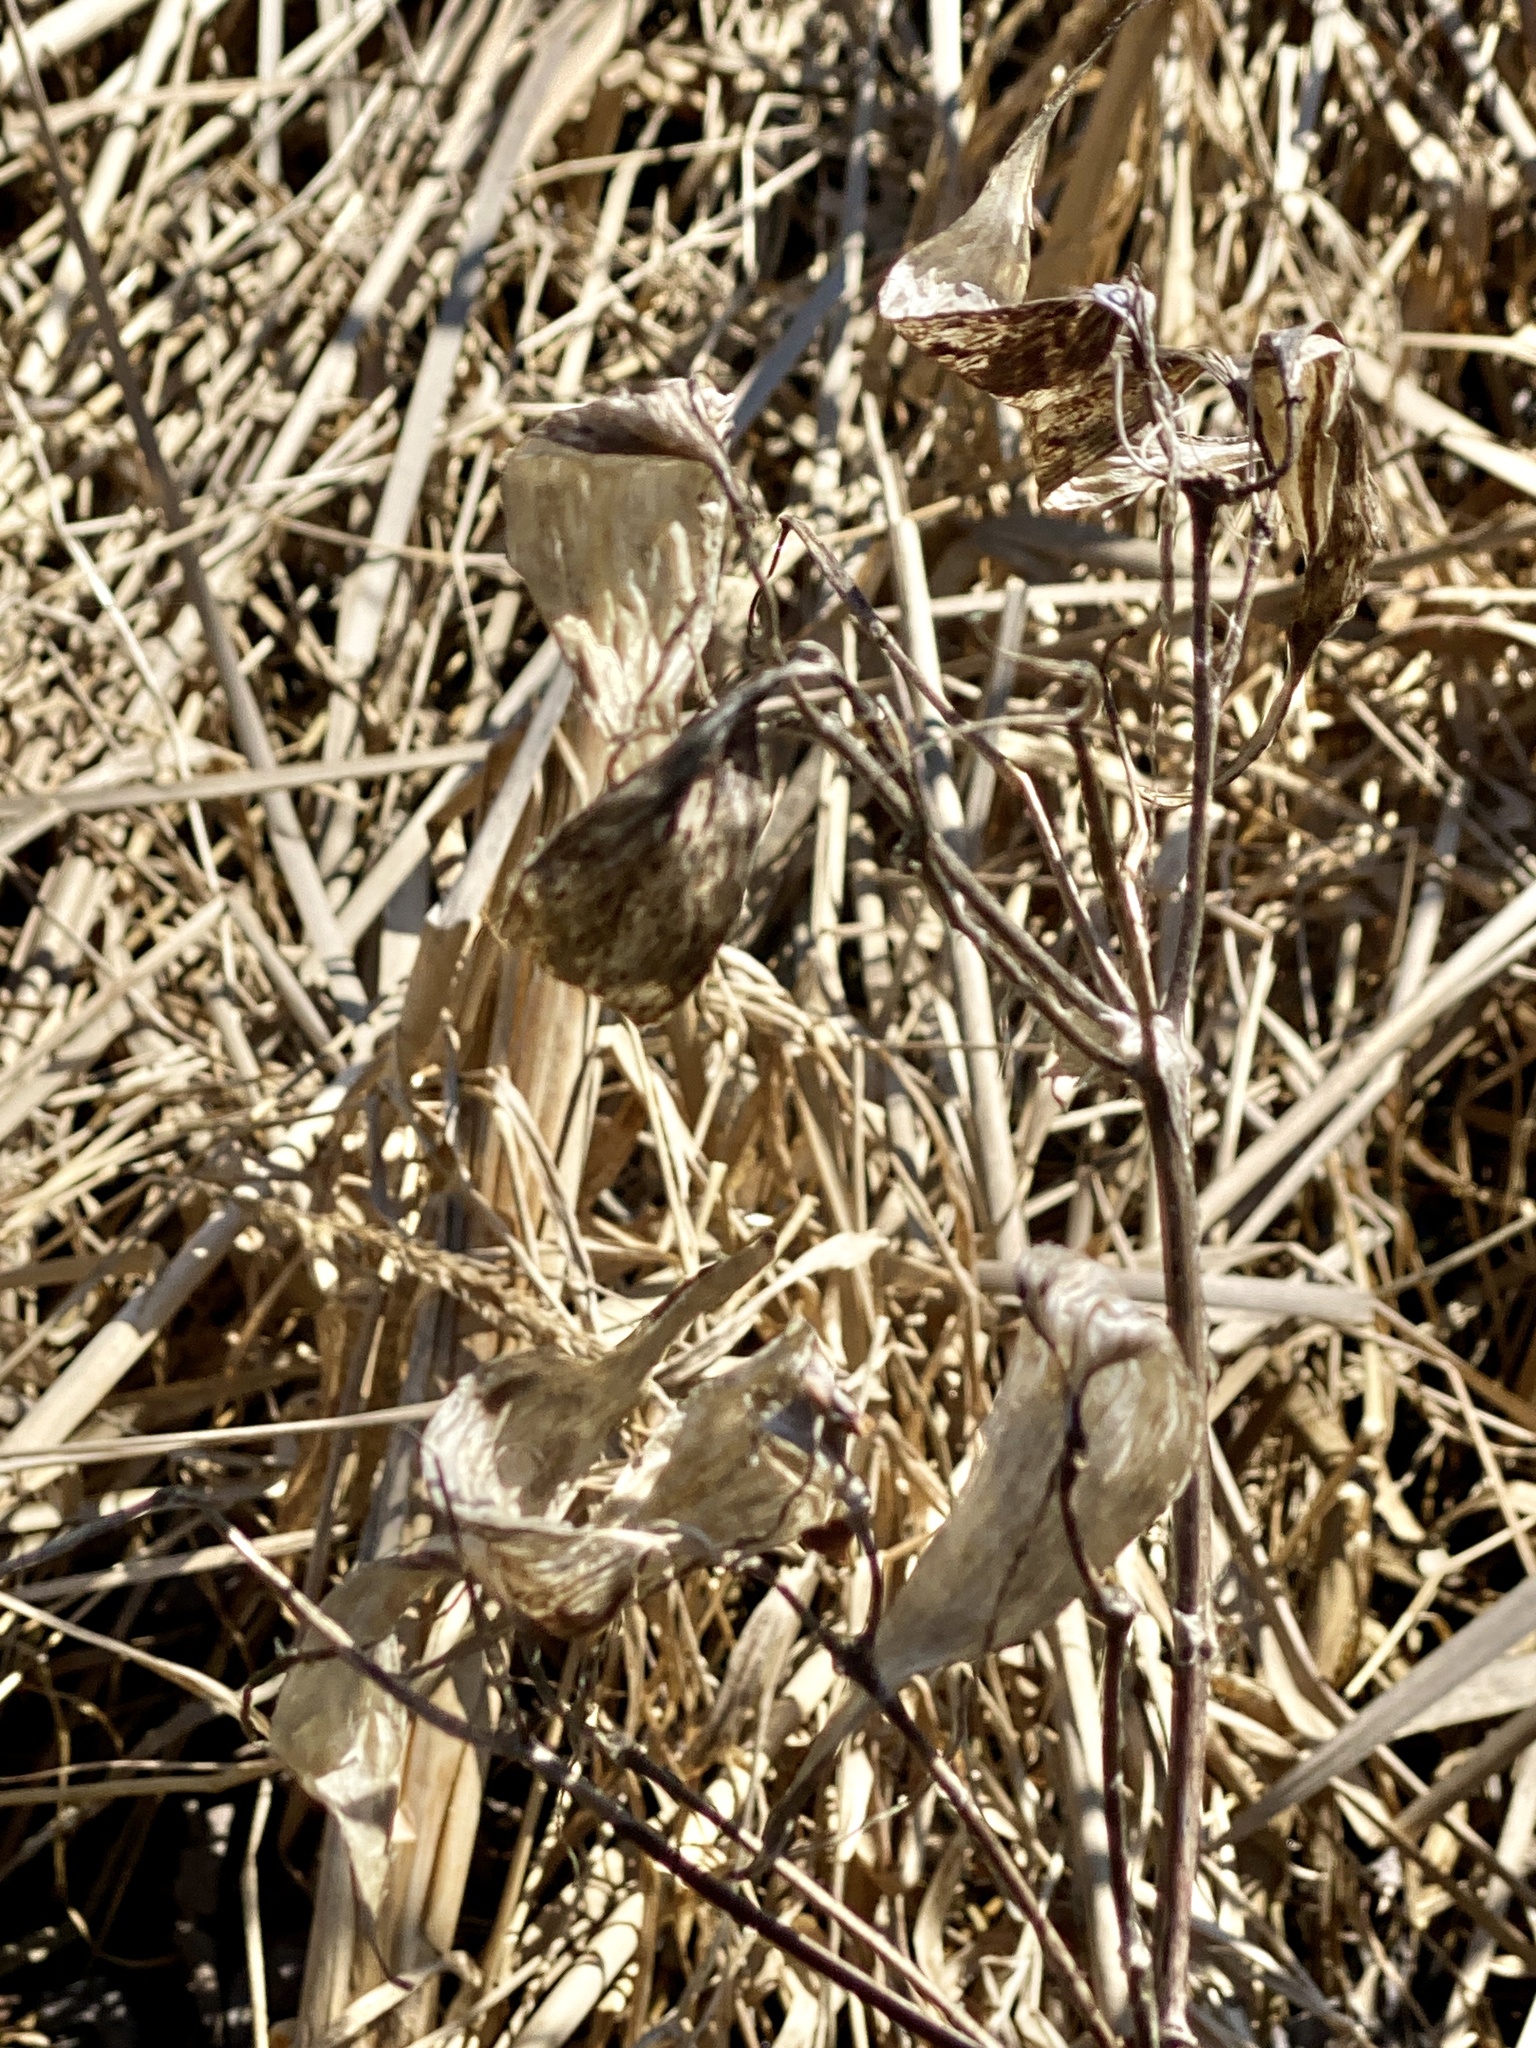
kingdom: Plantae
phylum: Tracheophyta
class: Magnoliopsida
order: Gentianales
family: Apocynaceae
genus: Asclepias
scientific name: Asclepias incarnata
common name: Swamp milkweed
